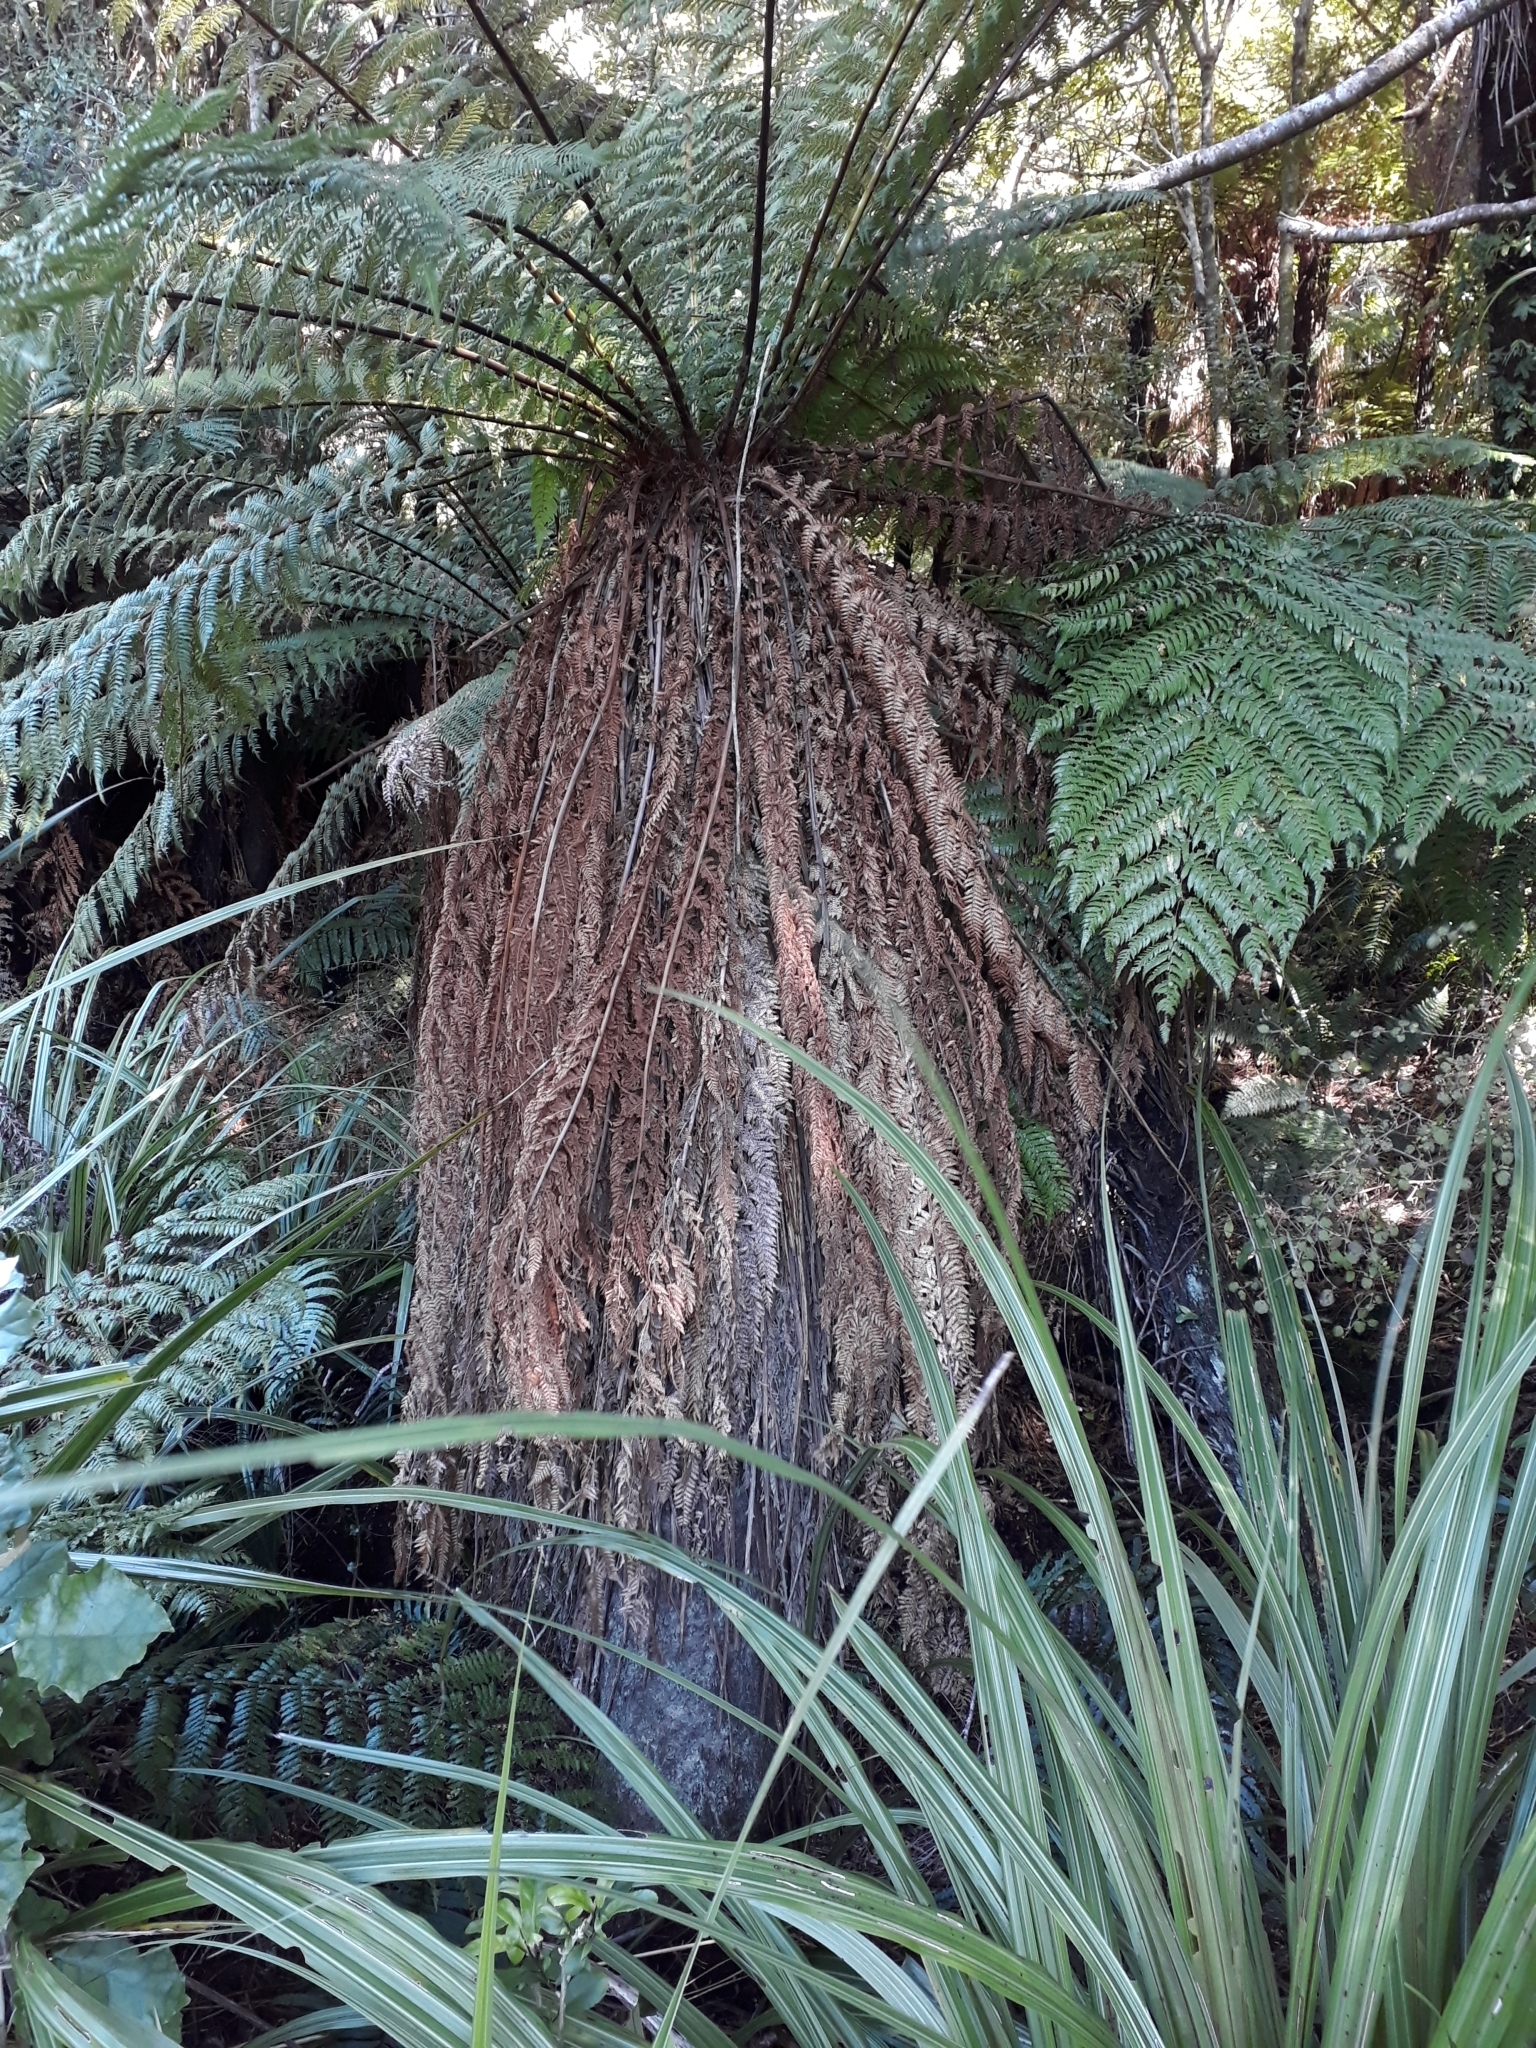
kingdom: Plantae
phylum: Tracheophyta
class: Polypodiopsida
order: Cyatheales
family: Dicksoniaceae
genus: Dicksonia
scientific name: Dicksonia fibrosa
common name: Golden tree fern
